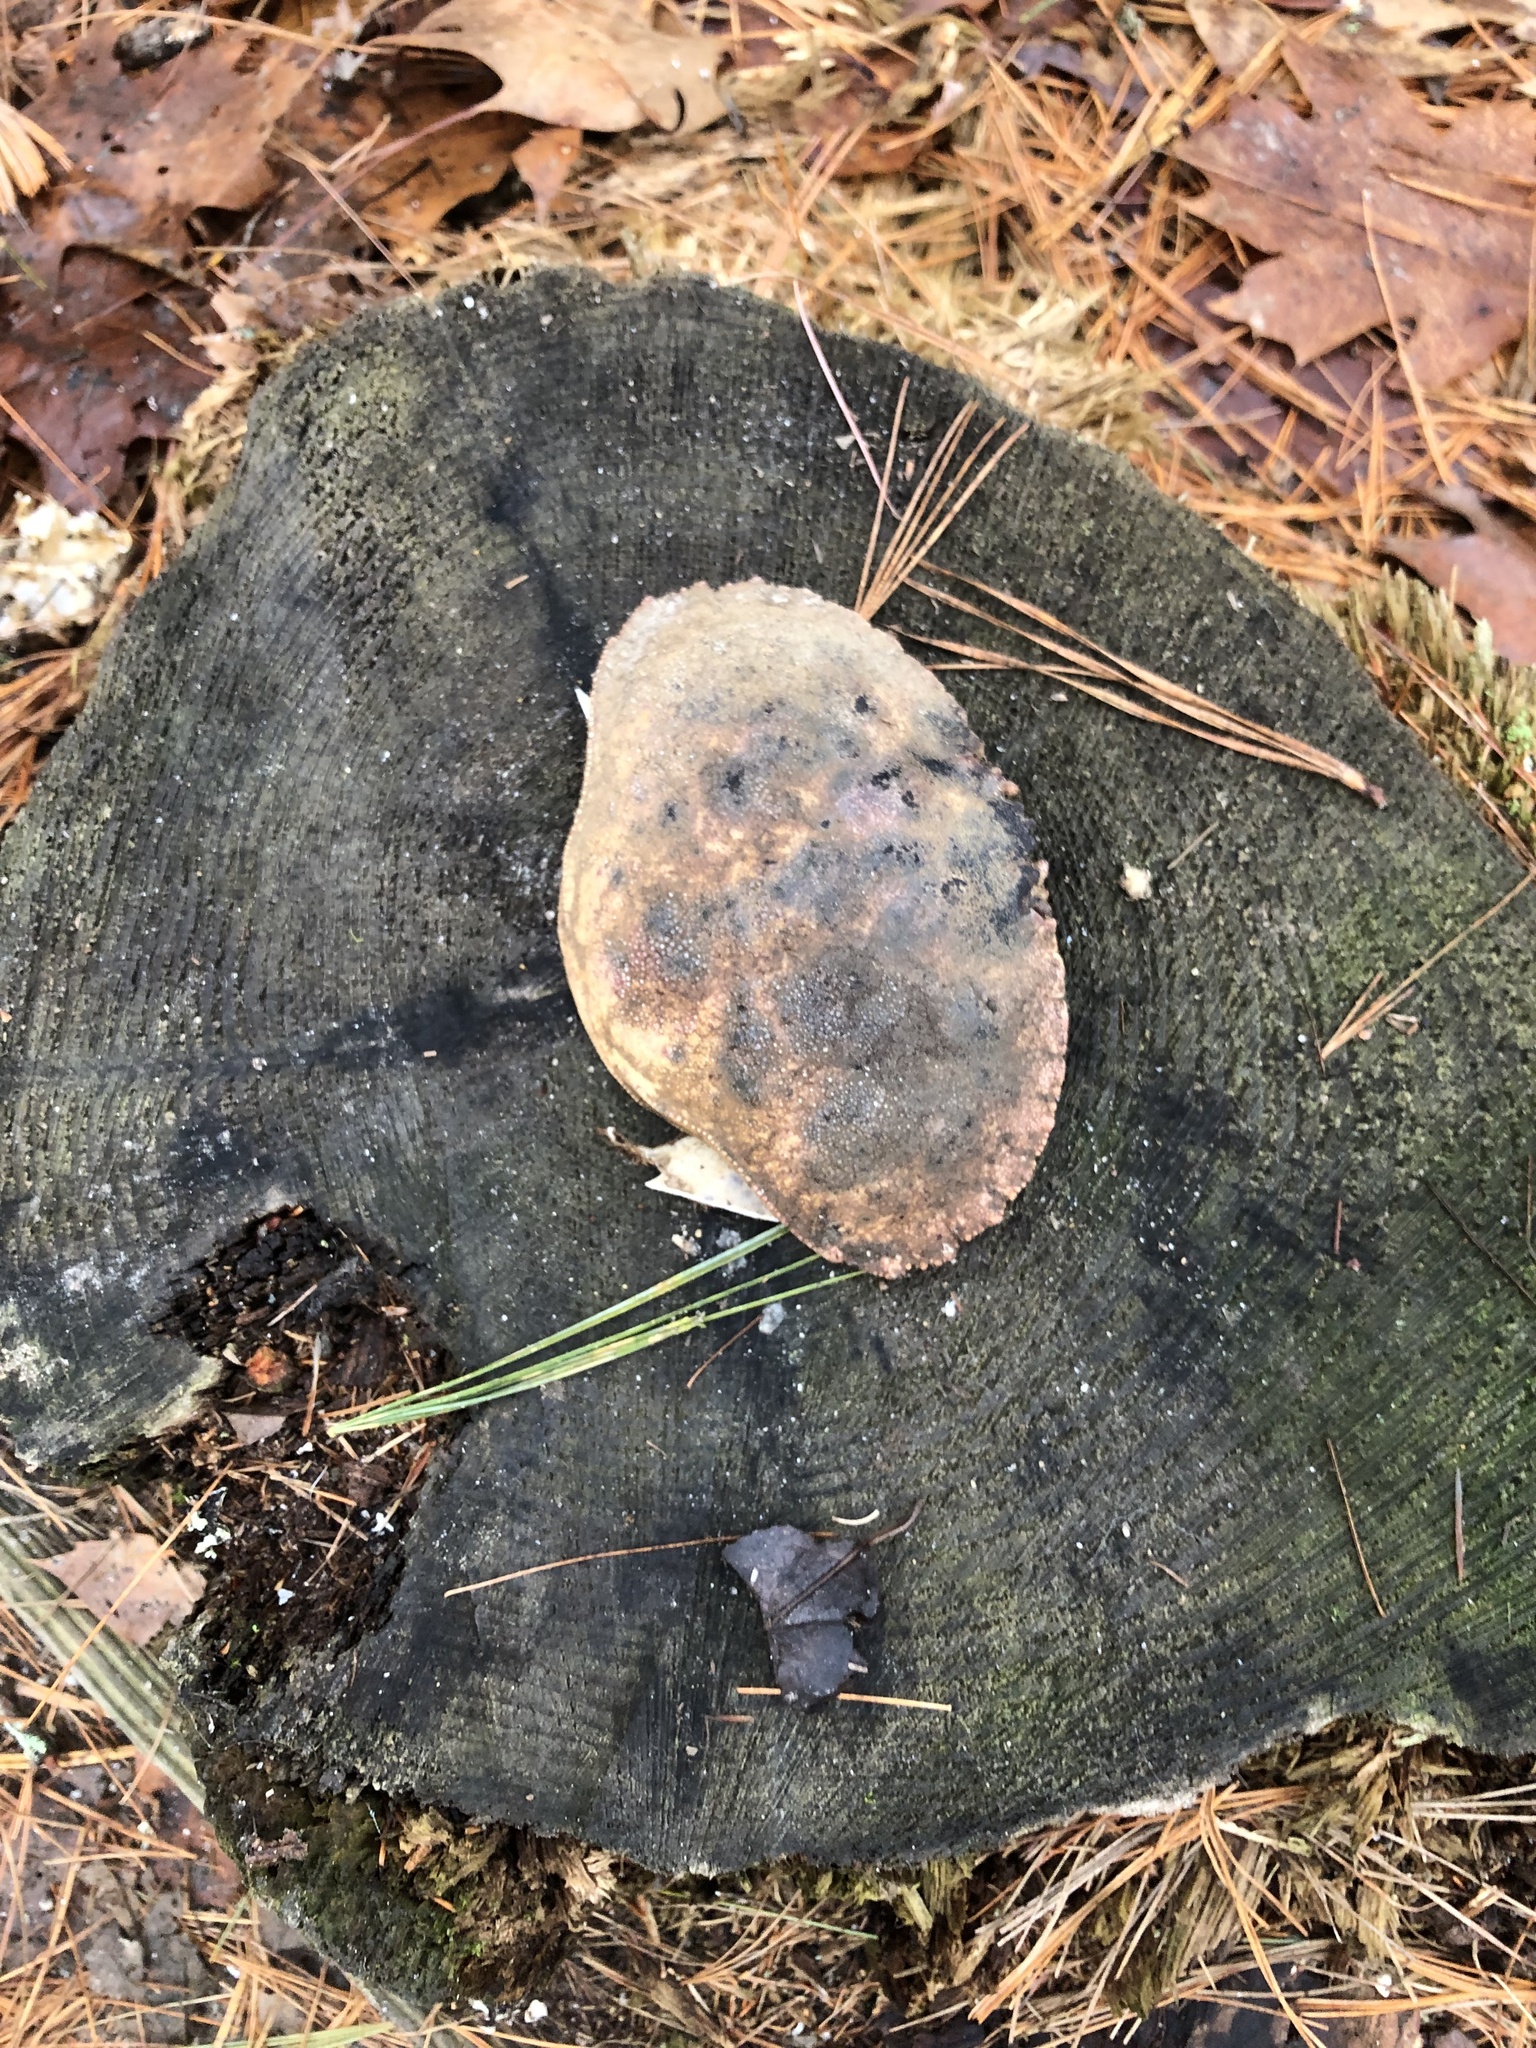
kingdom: Animalia
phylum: Arthropoda
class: Malacostraca
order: Decapoda
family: Cancridae
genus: Cancer
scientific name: Cancer borealis
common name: Jonah crab
